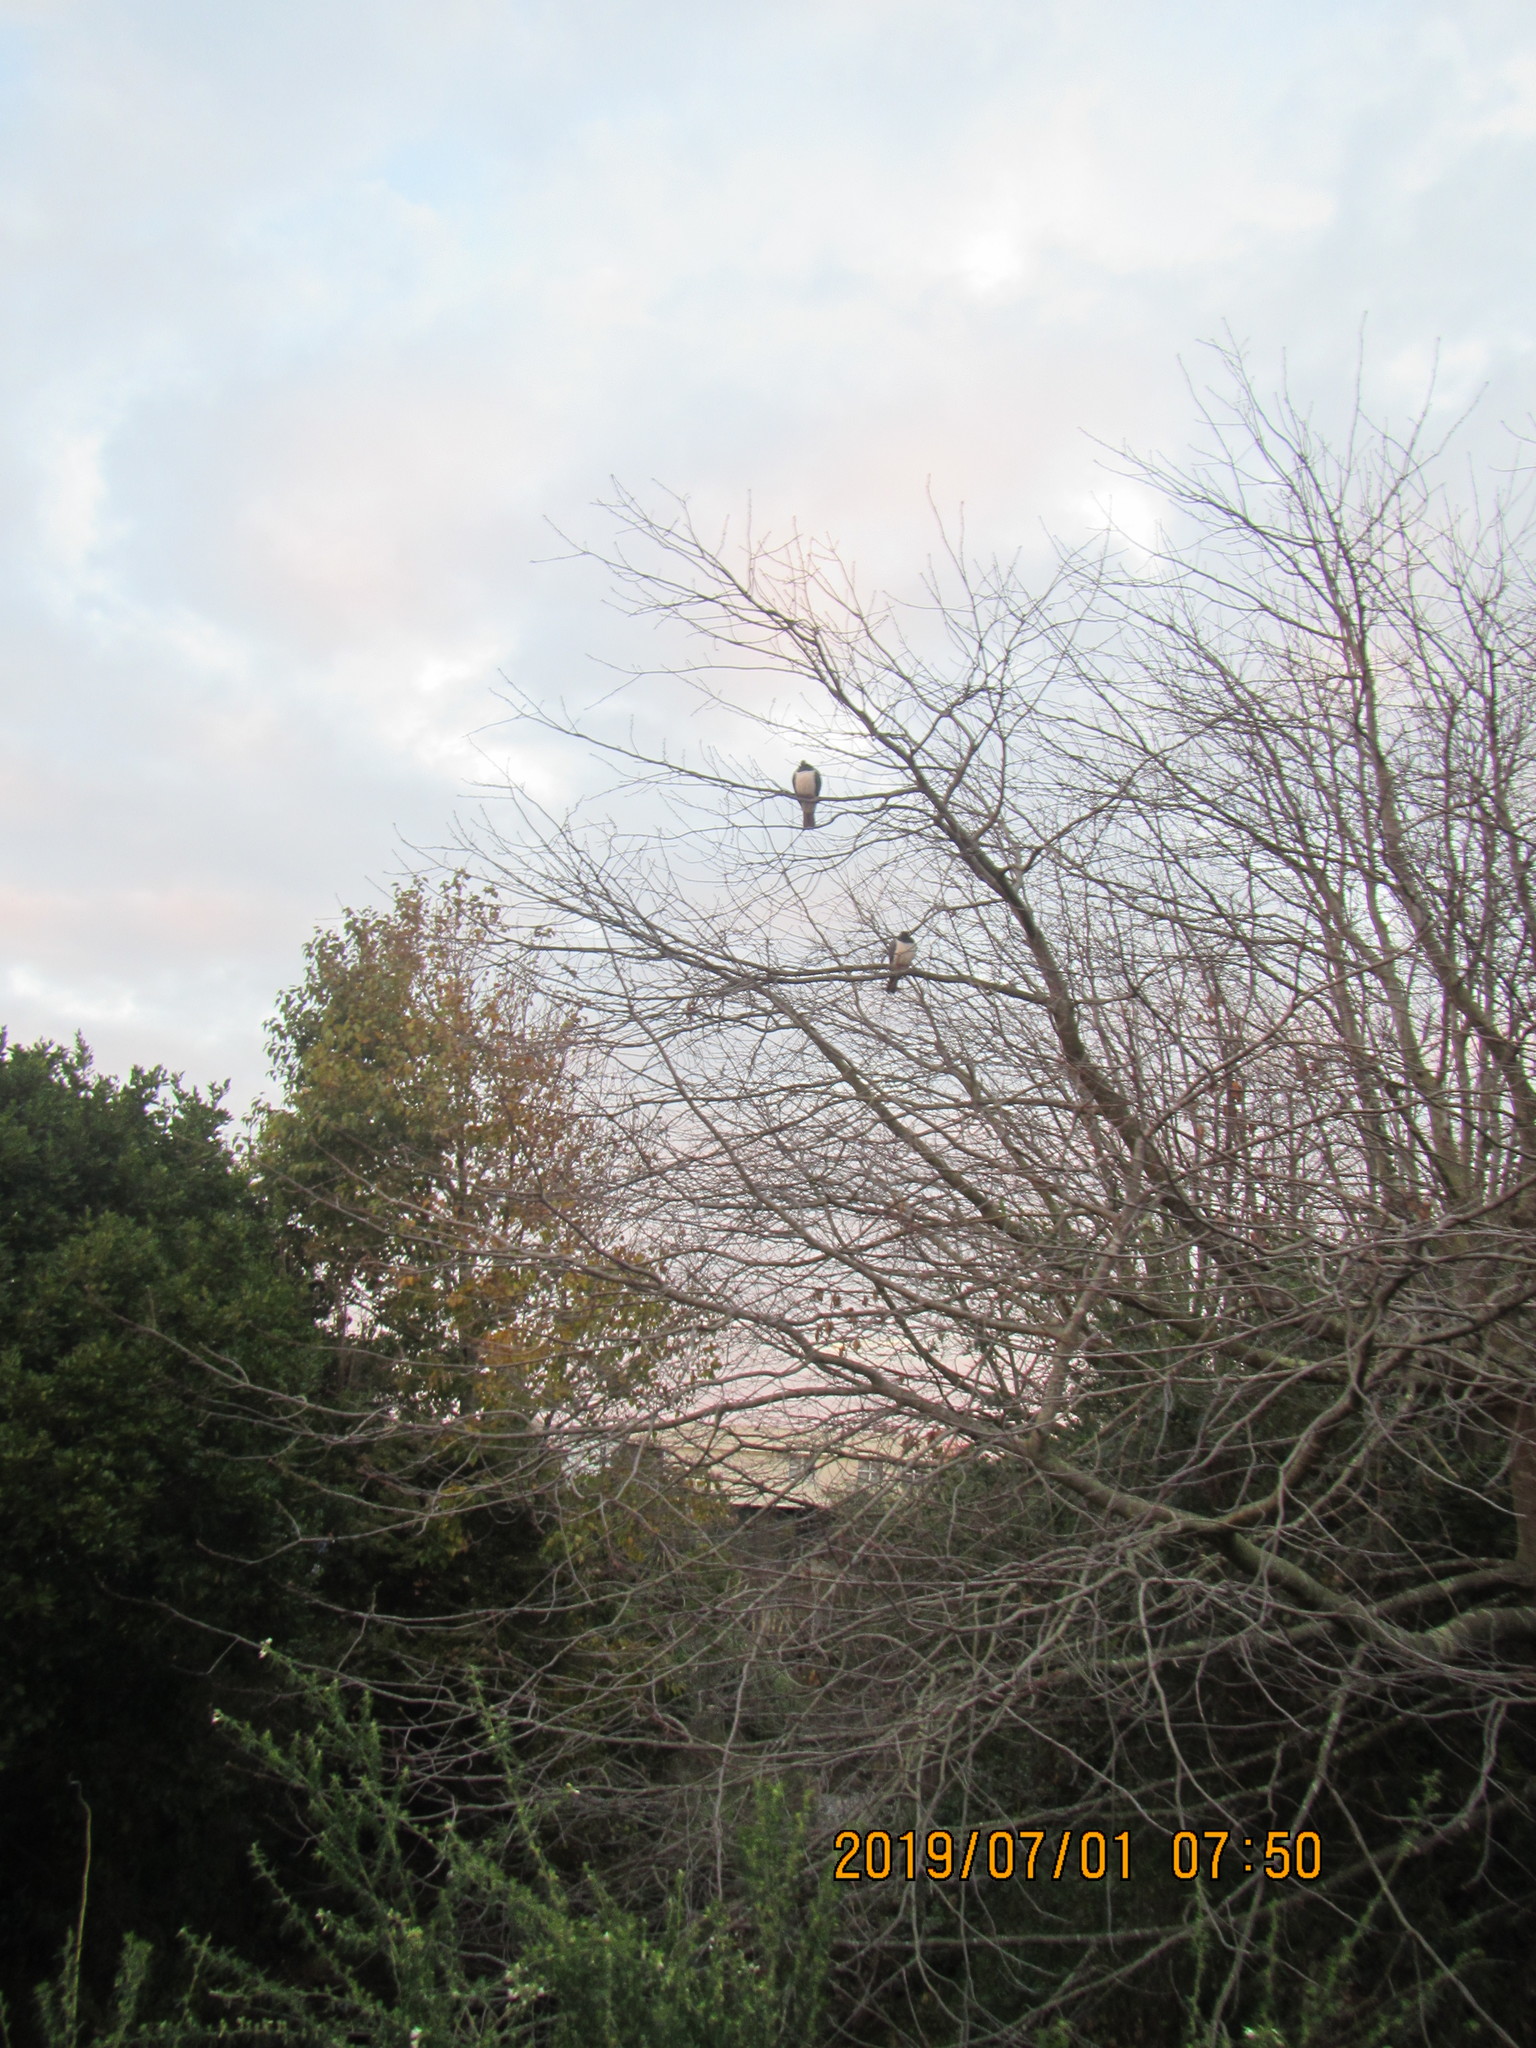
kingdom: Animalia
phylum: Chordata
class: Aves
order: Columbiformes
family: Columbidae
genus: Hemiphaga
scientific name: Hemiphaga novaeseelandiae
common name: New zealand pigeon
